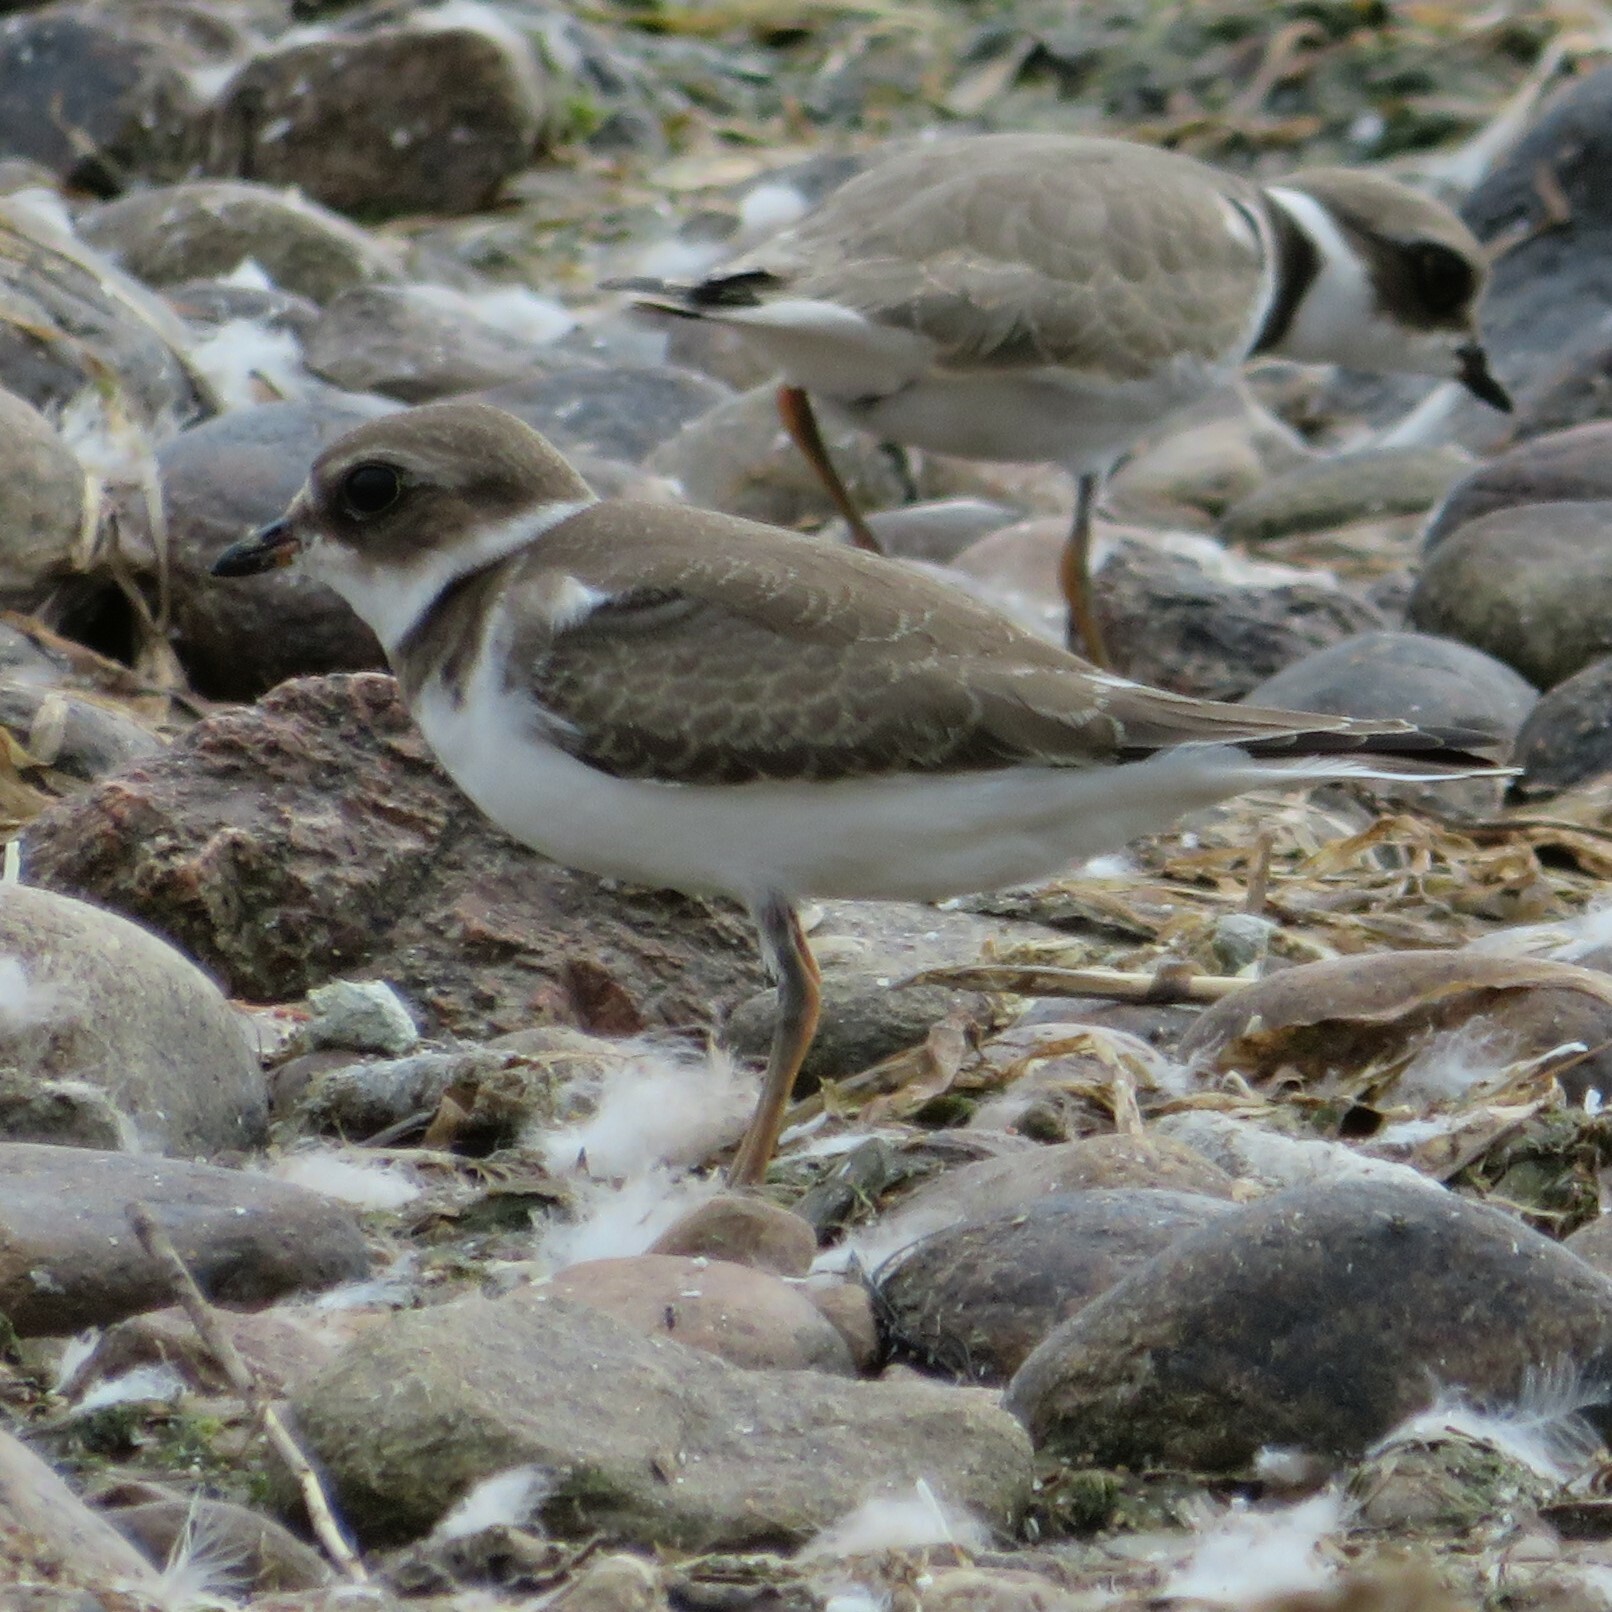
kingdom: Animalia
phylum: Chordata
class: Aves
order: Charadriiformes
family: Charadriidae
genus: Charadrius
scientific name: Charadrius semipalmatus
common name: Semipalmated plover
